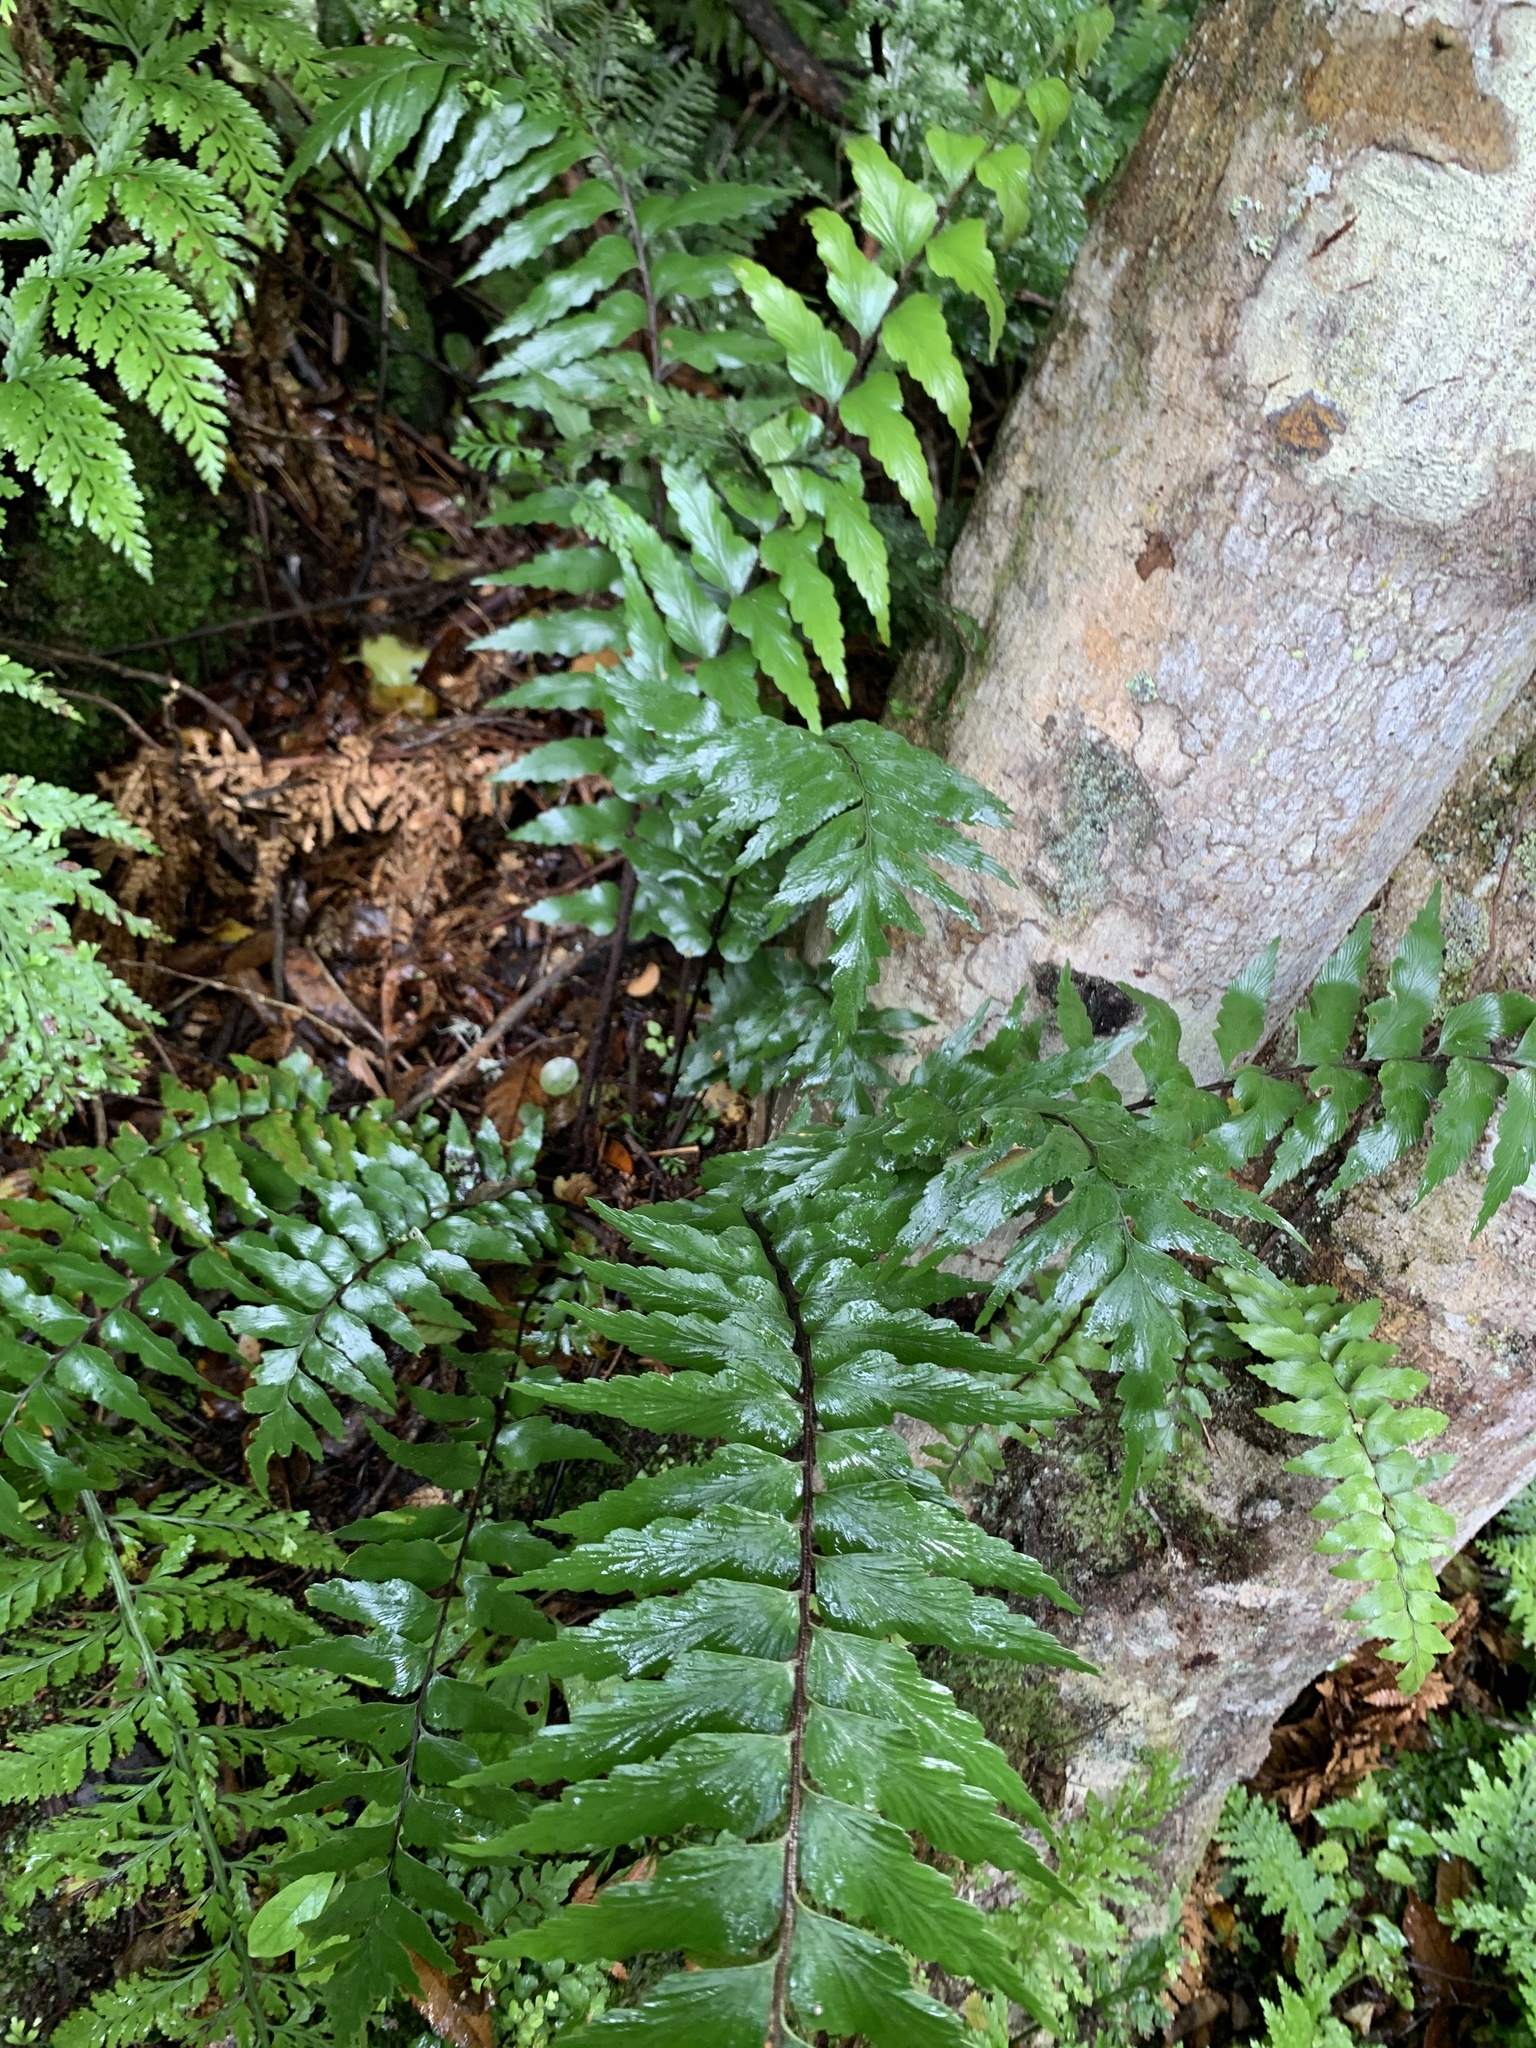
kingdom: Plantae
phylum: Tracheophyta
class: Polypodiopsida
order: Polypodiales
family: Aspleniaceae
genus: Asplenium
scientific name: Asplenium polyodon
